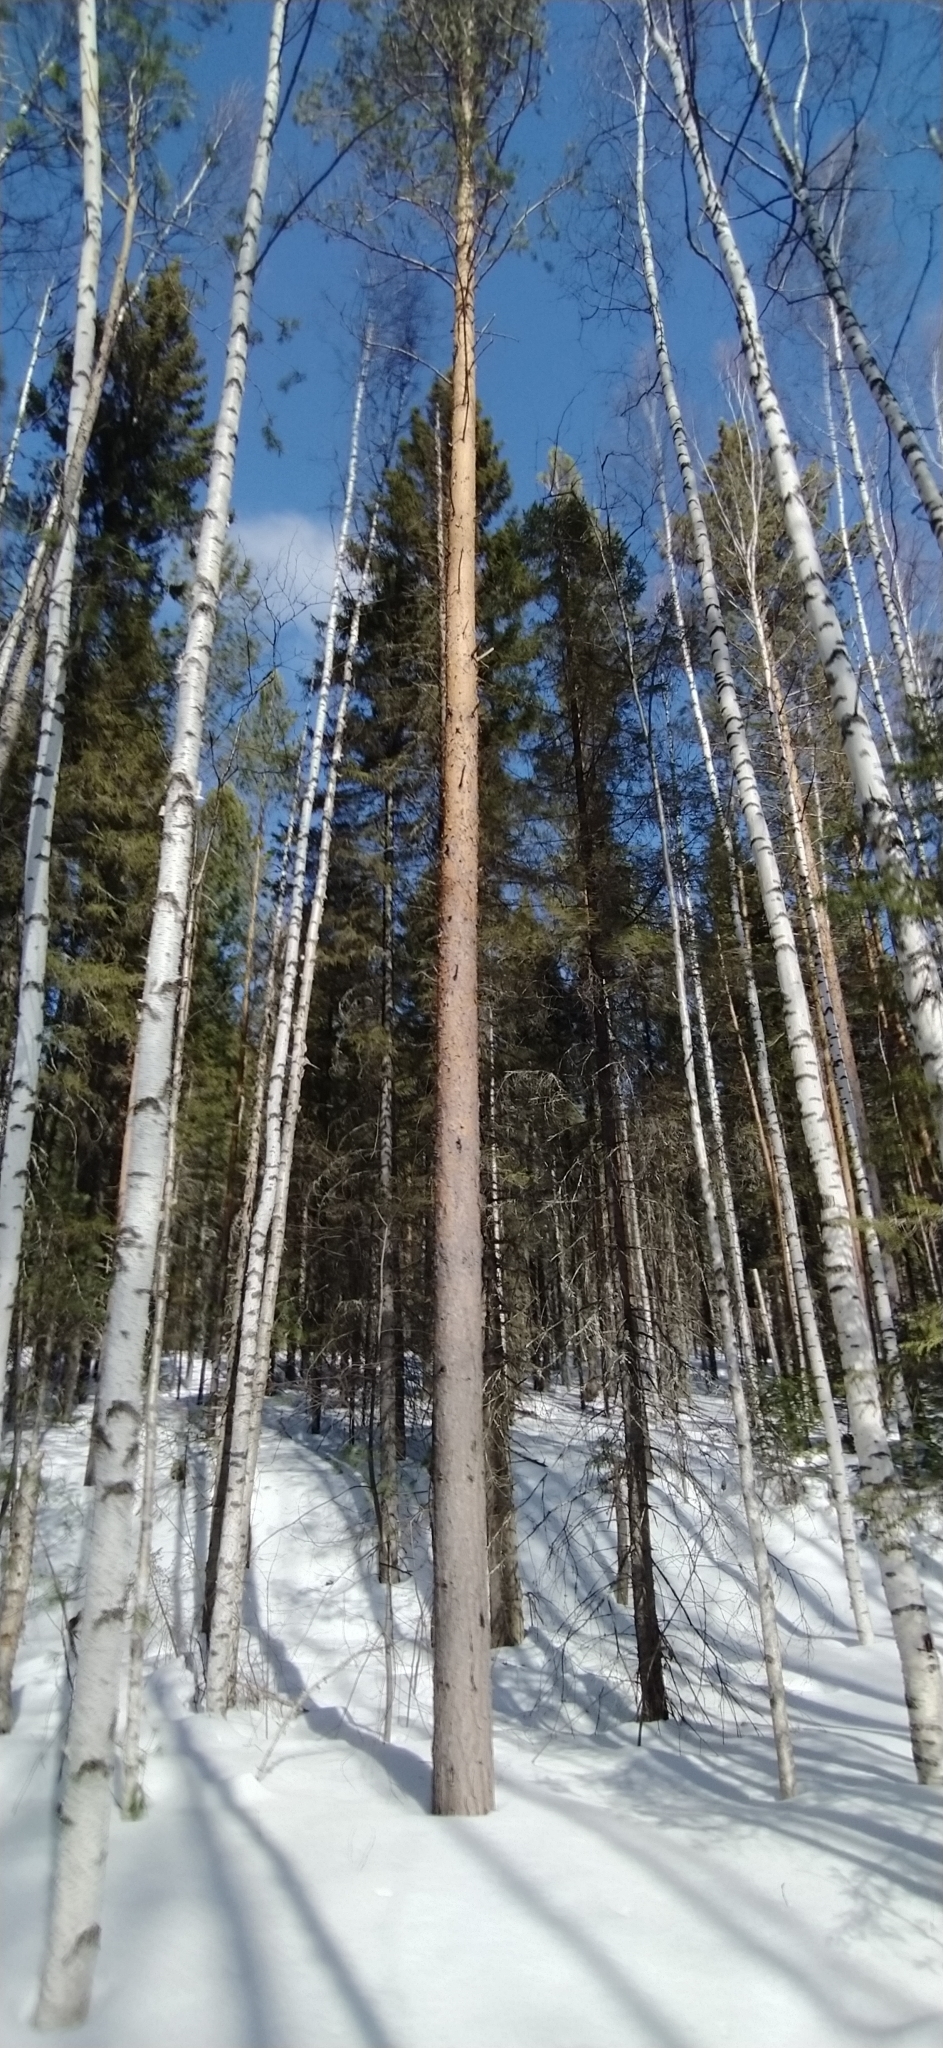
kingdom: Plantae
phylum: Tracheophyta
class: Pinopsida
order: Pinales
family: Pinaceae
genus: Pinus
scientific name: Pinus sylvestris
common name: Scots pine
